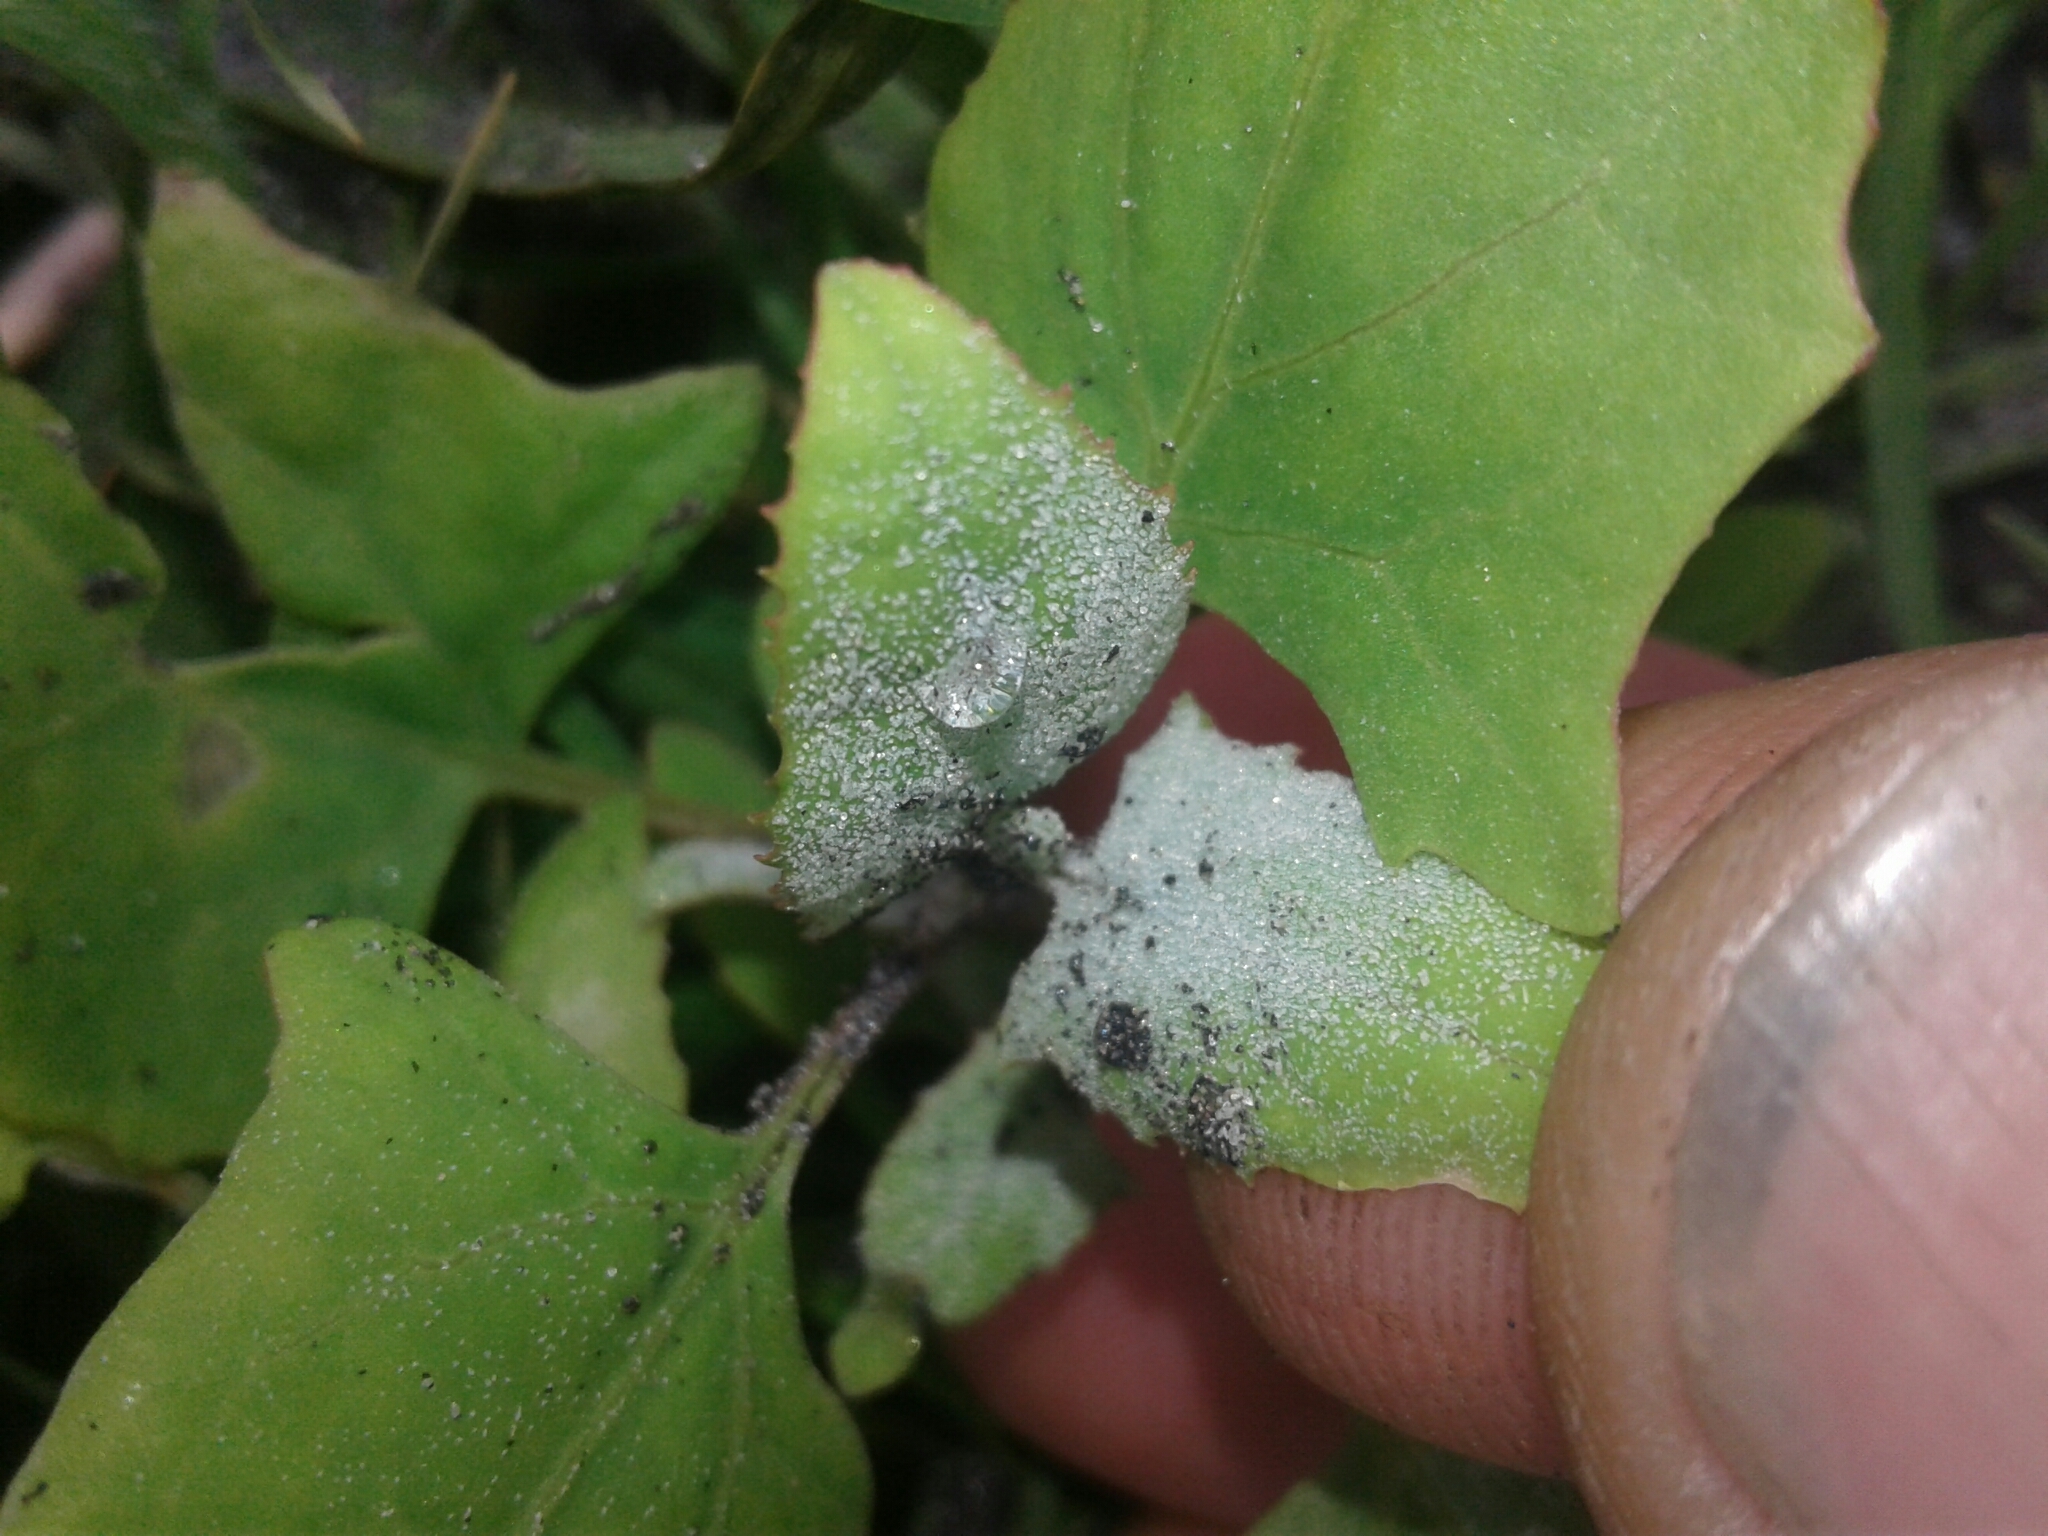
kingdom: Plantae
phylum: Tracheophyta
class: Magnoliopsida
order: Caryophyllales
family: Amaranthaceae
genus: Atriplex
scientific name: Atriplex prostrata
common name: Spear-leaved orache
